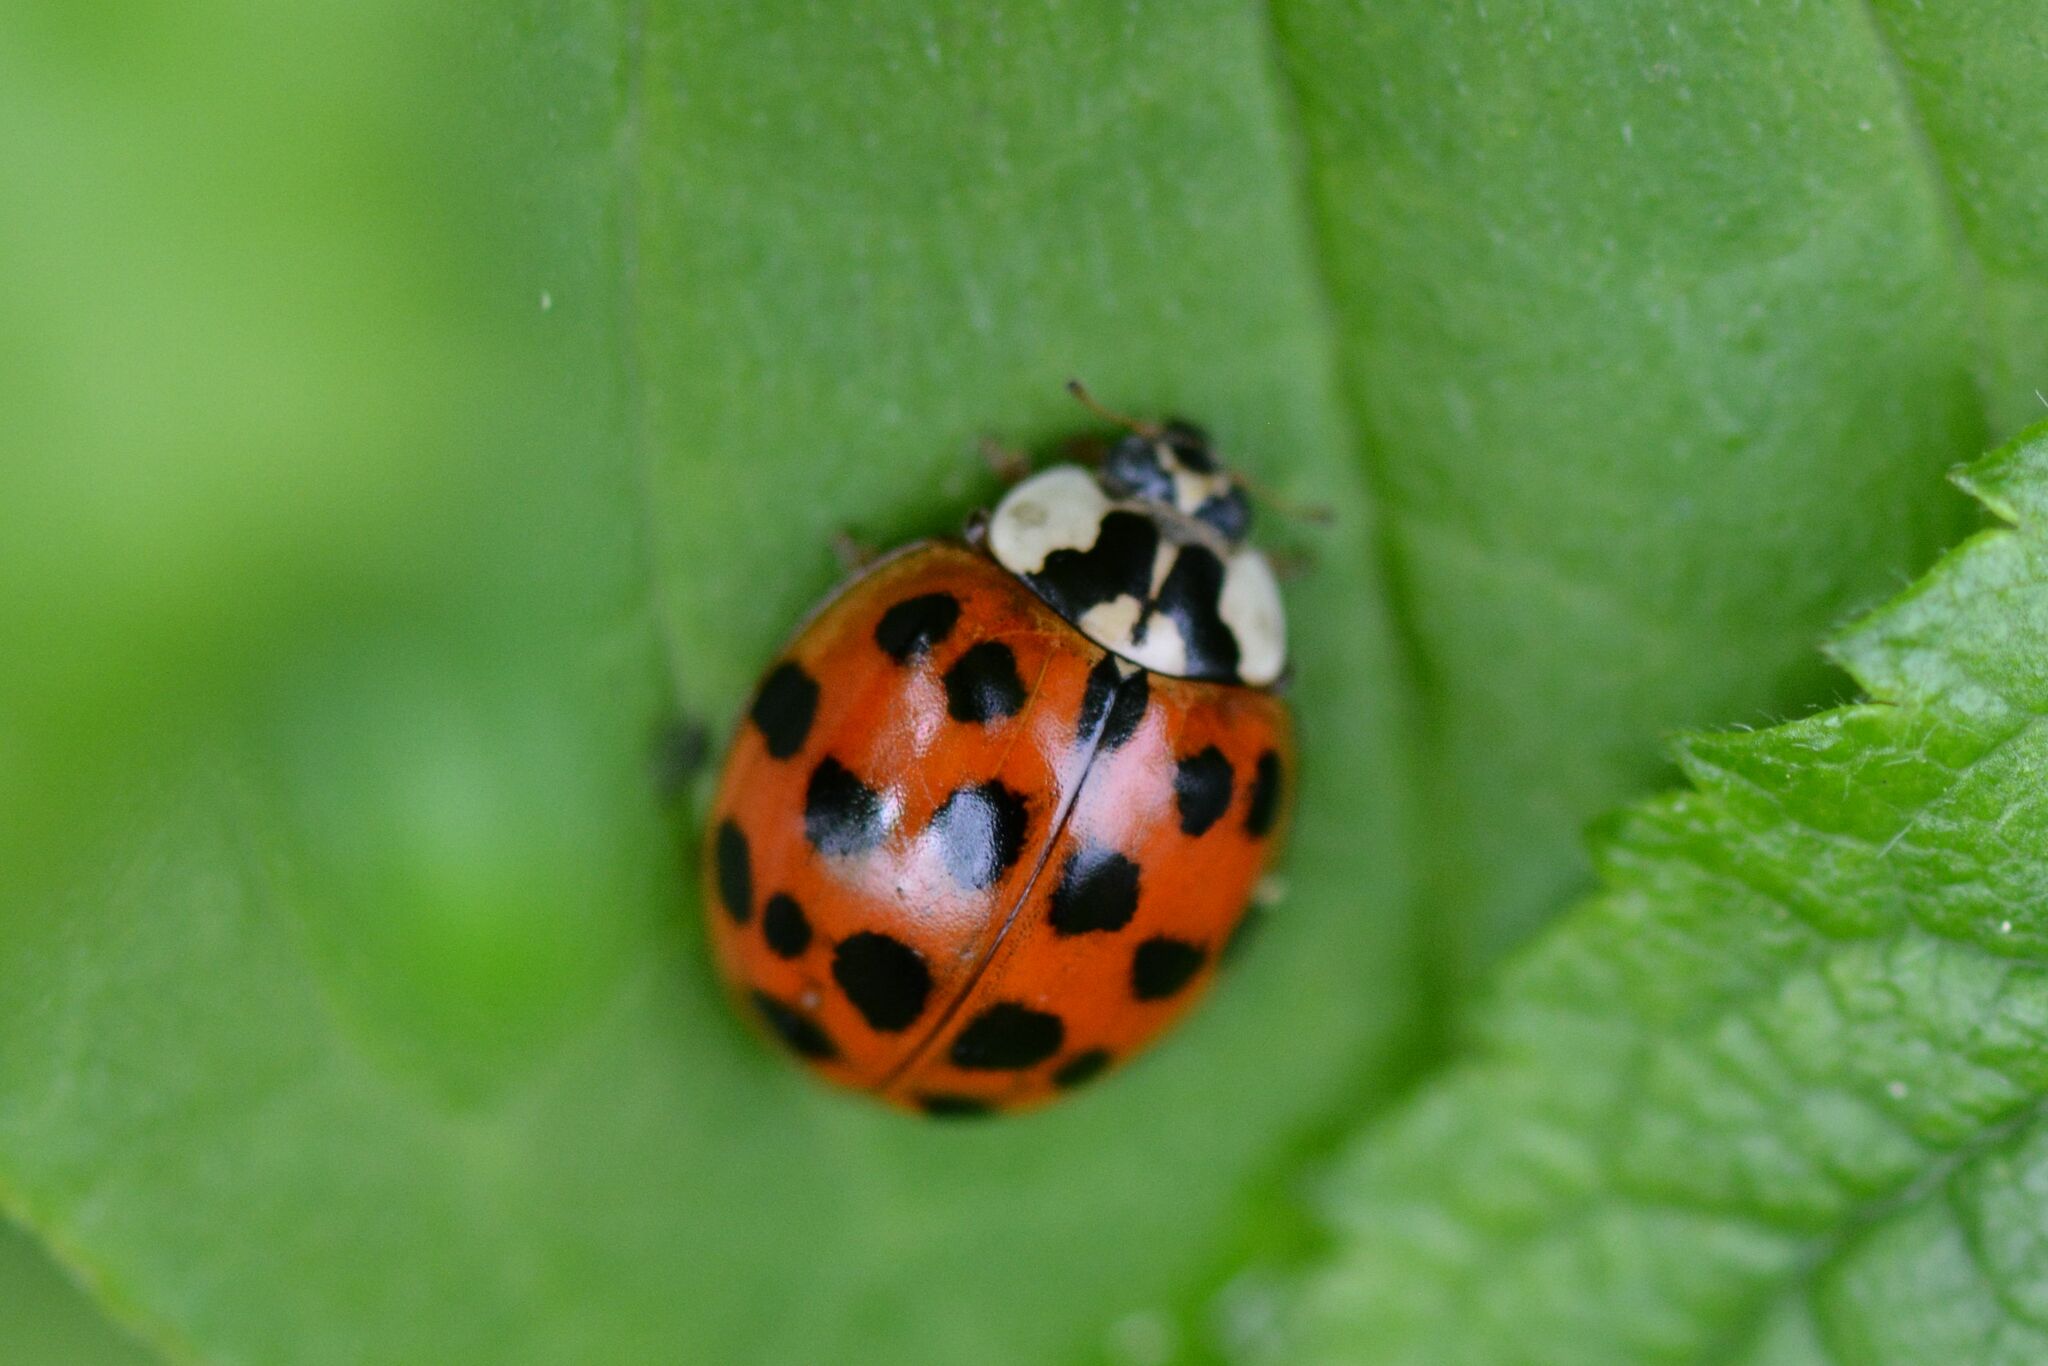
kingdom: Animalia
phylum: Arthropoda
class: Insecta
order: Coleoptera
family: Coccinellidae
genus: Harmonia
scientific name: Harmonia axyridis
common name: Harlequin ladybird
